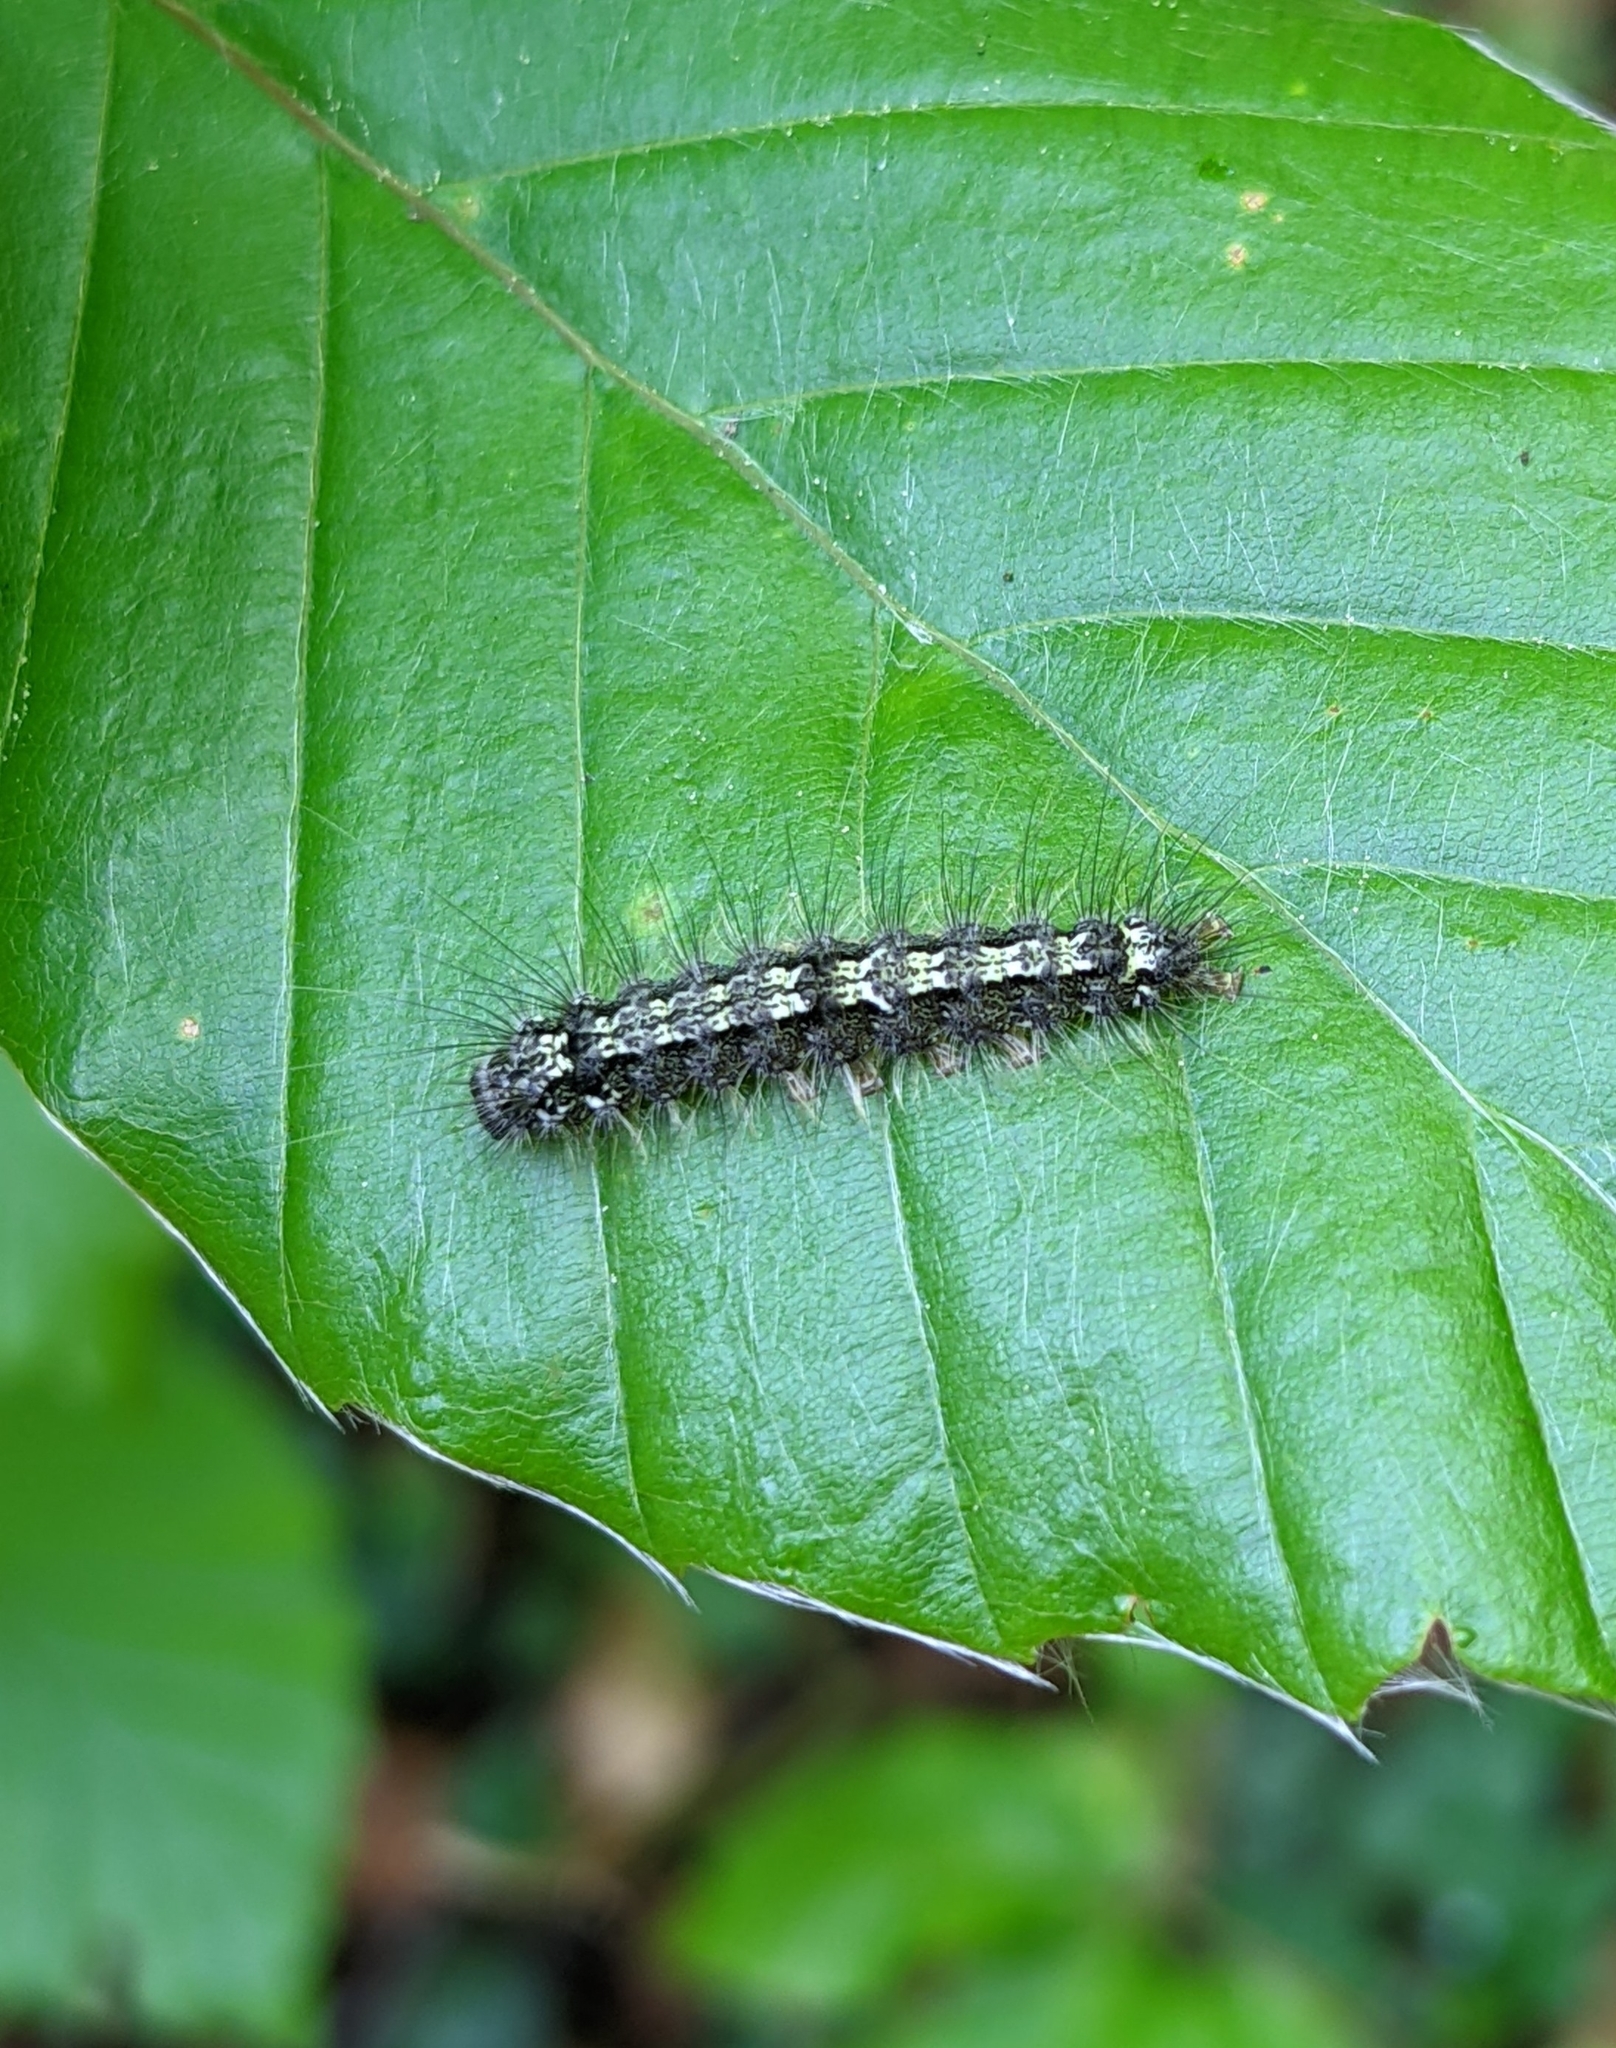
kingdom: Animalia
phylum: Arthropoda
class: Insecta
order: Lepidoptera
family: Erebidae
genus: Katha
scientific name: Katha depressa
